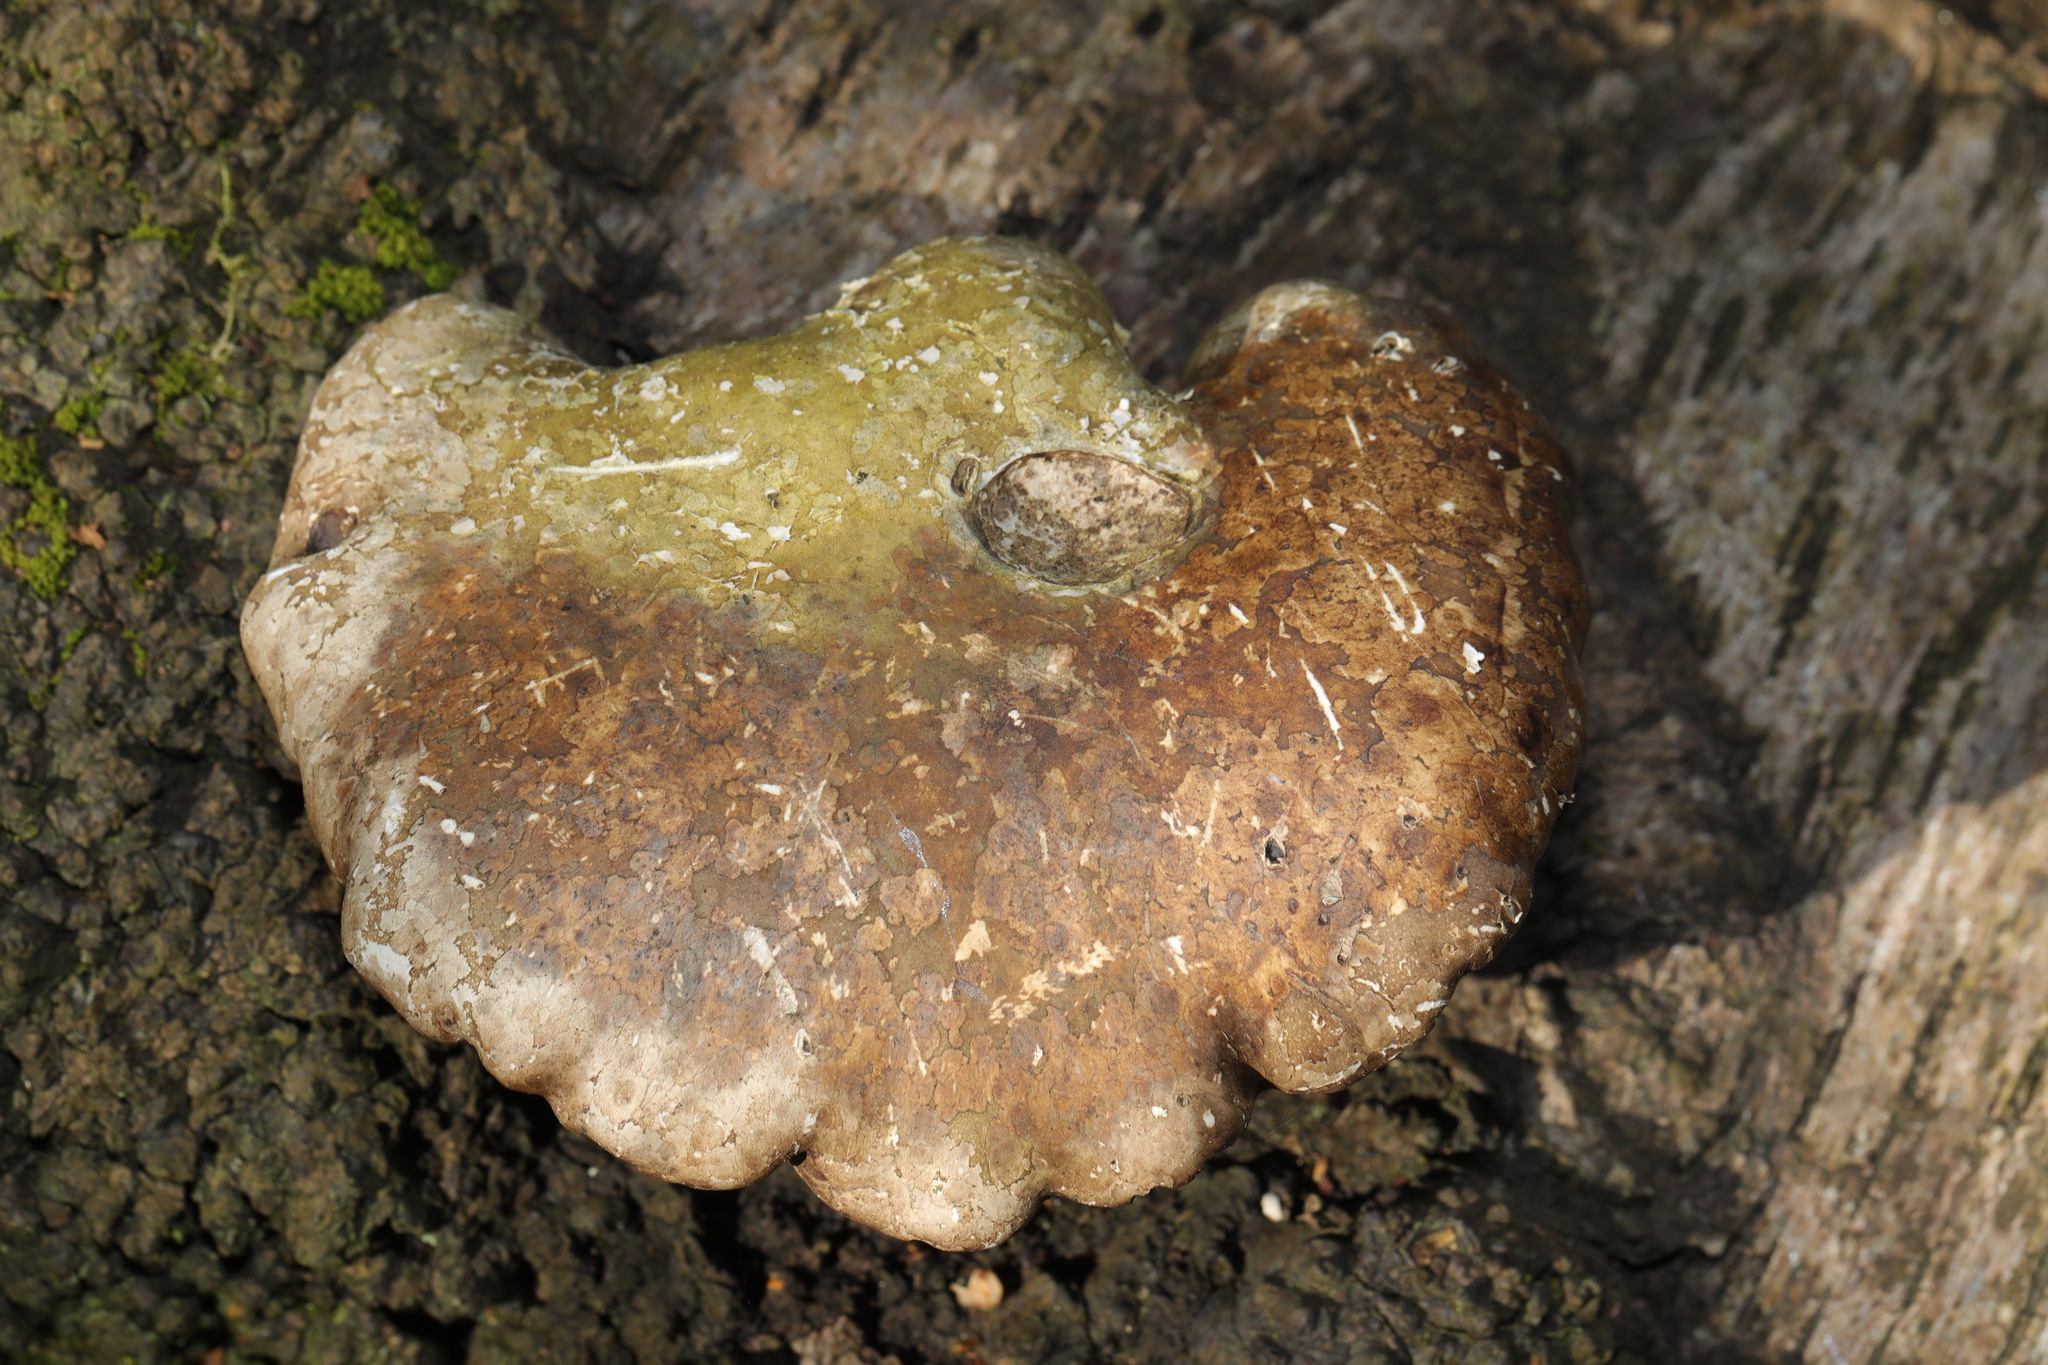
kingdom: Fungi
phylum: Basidiomycota
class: Agaricomycetes
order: Polyporales
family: Fomitopsidaceae
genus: Fomitopsis
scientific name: Fomitopsis betulina
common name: Birch polypore
